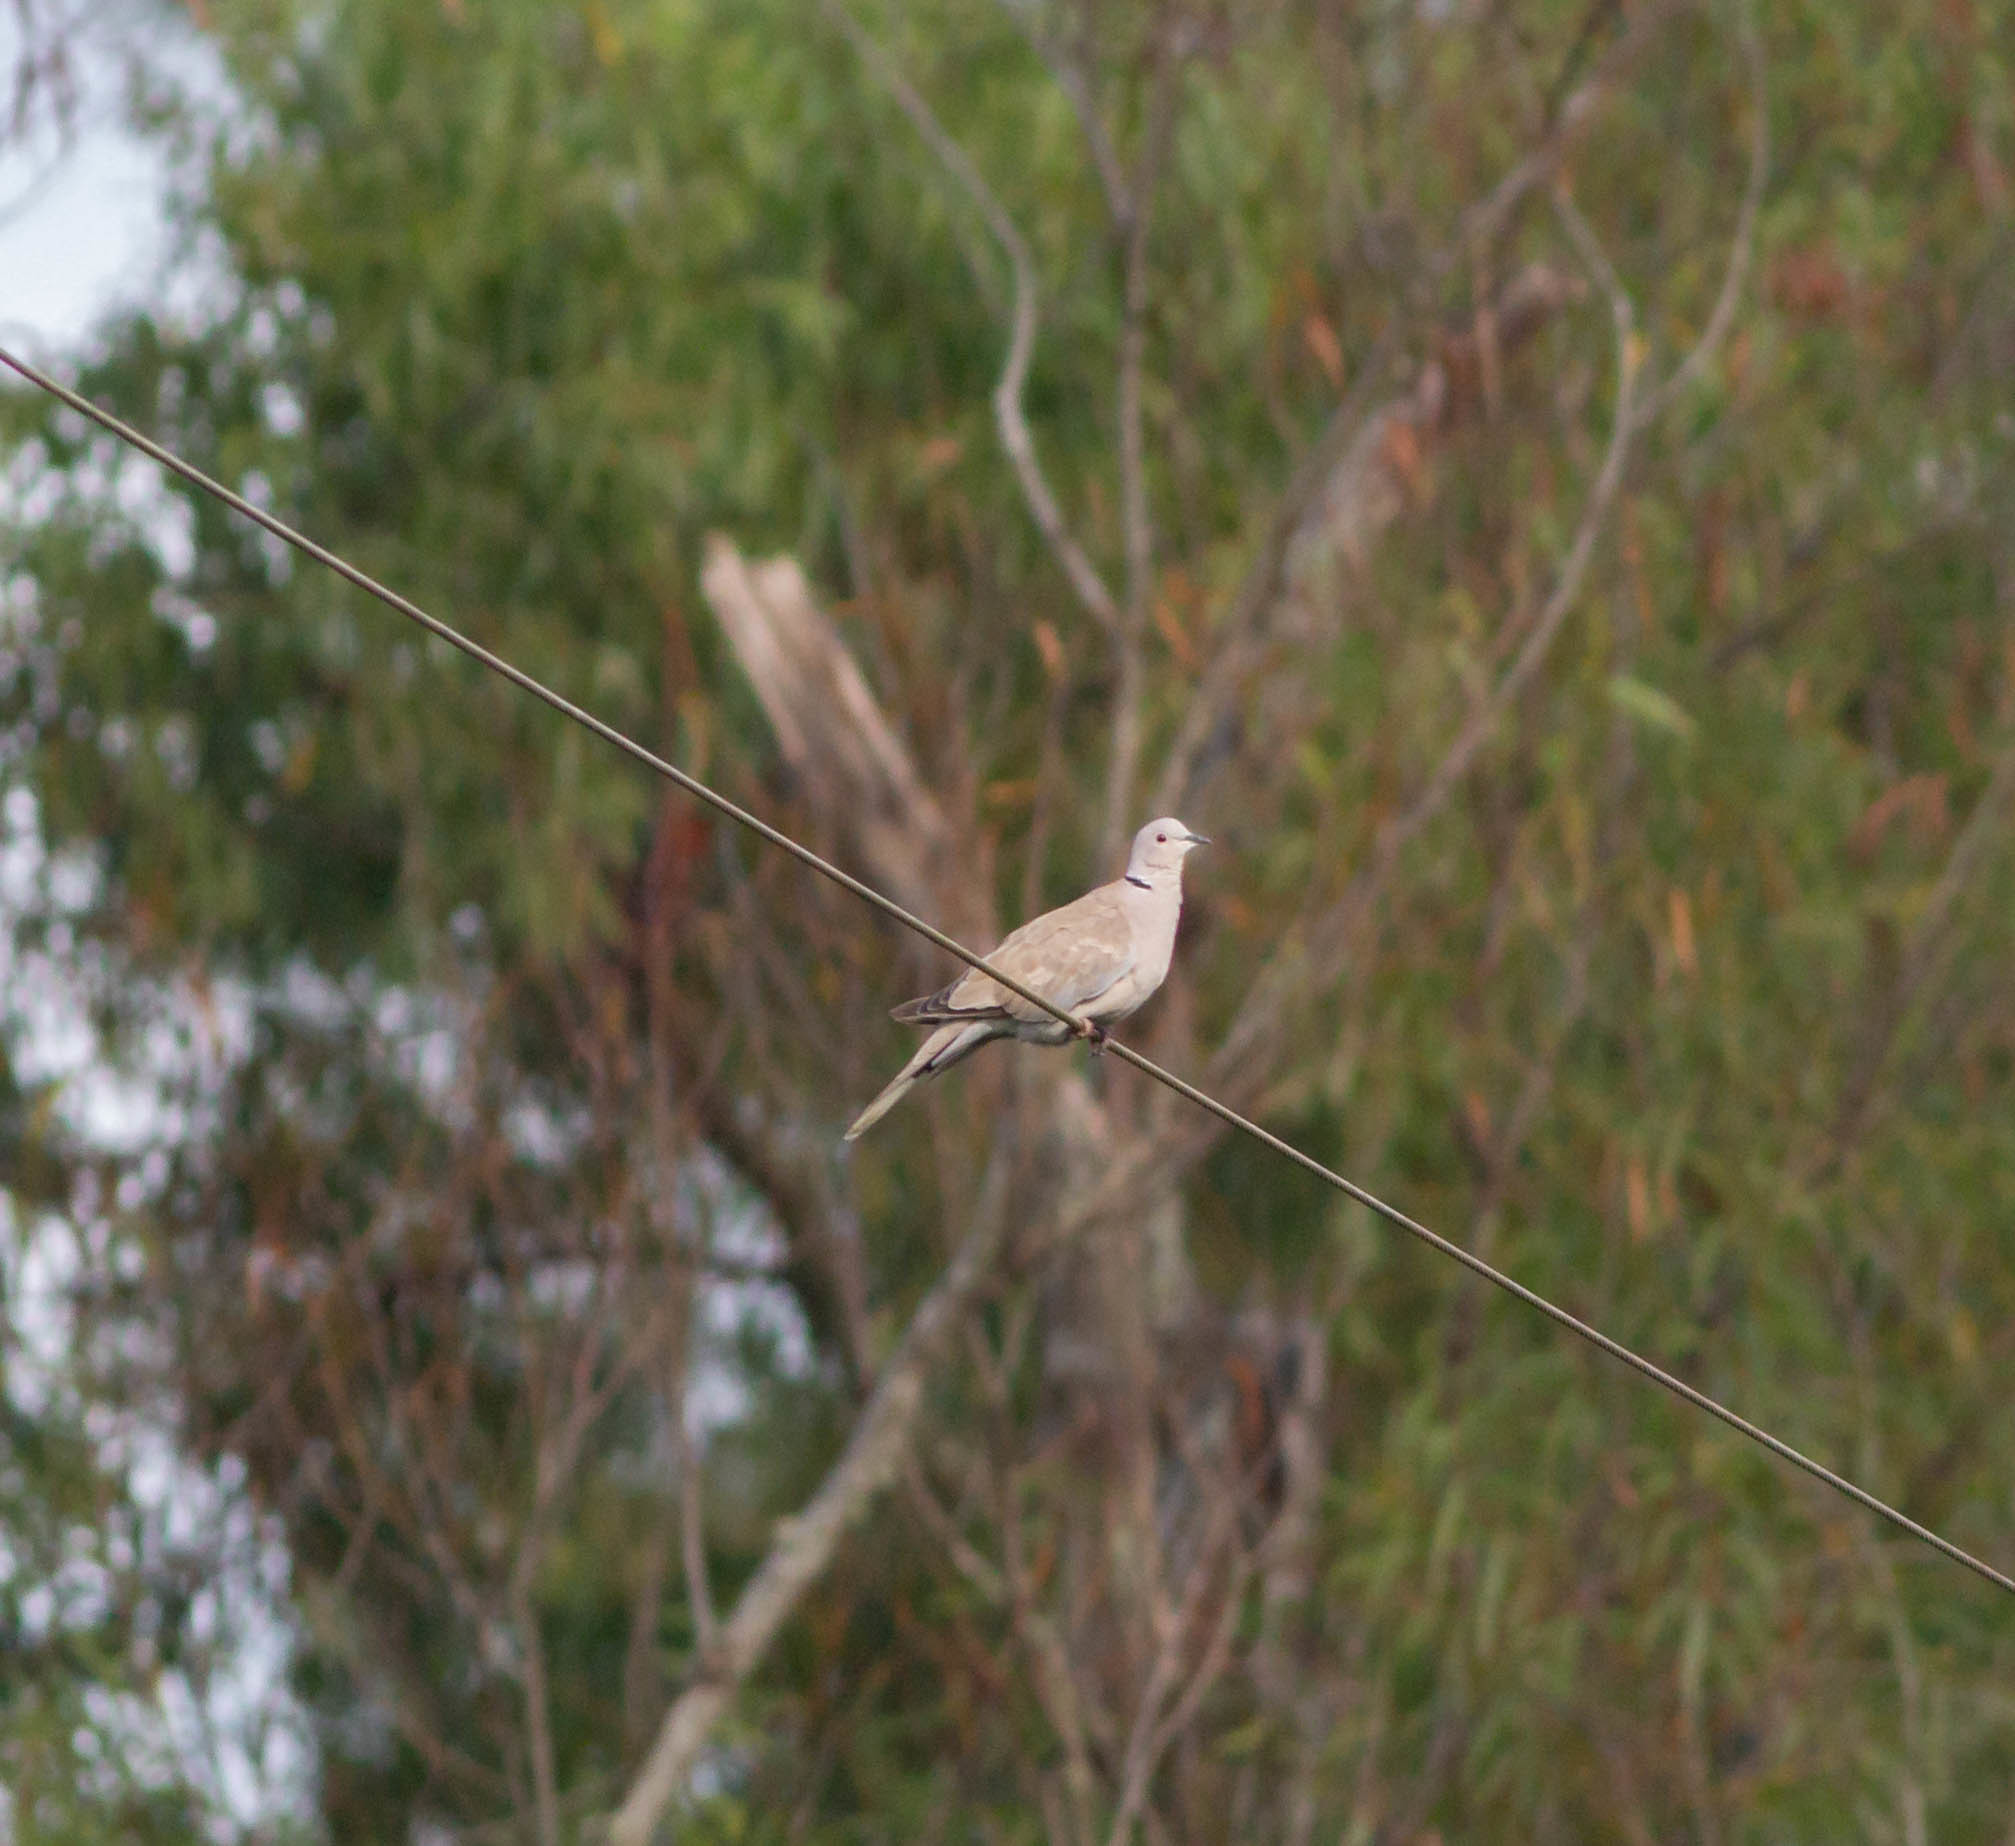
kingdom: Animalia
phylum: Chordata
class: Aves
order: Columbiformes
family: Columbidae
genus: Streptopelia
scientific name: Streptopelia decaocto
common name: Eurasian collared dove
